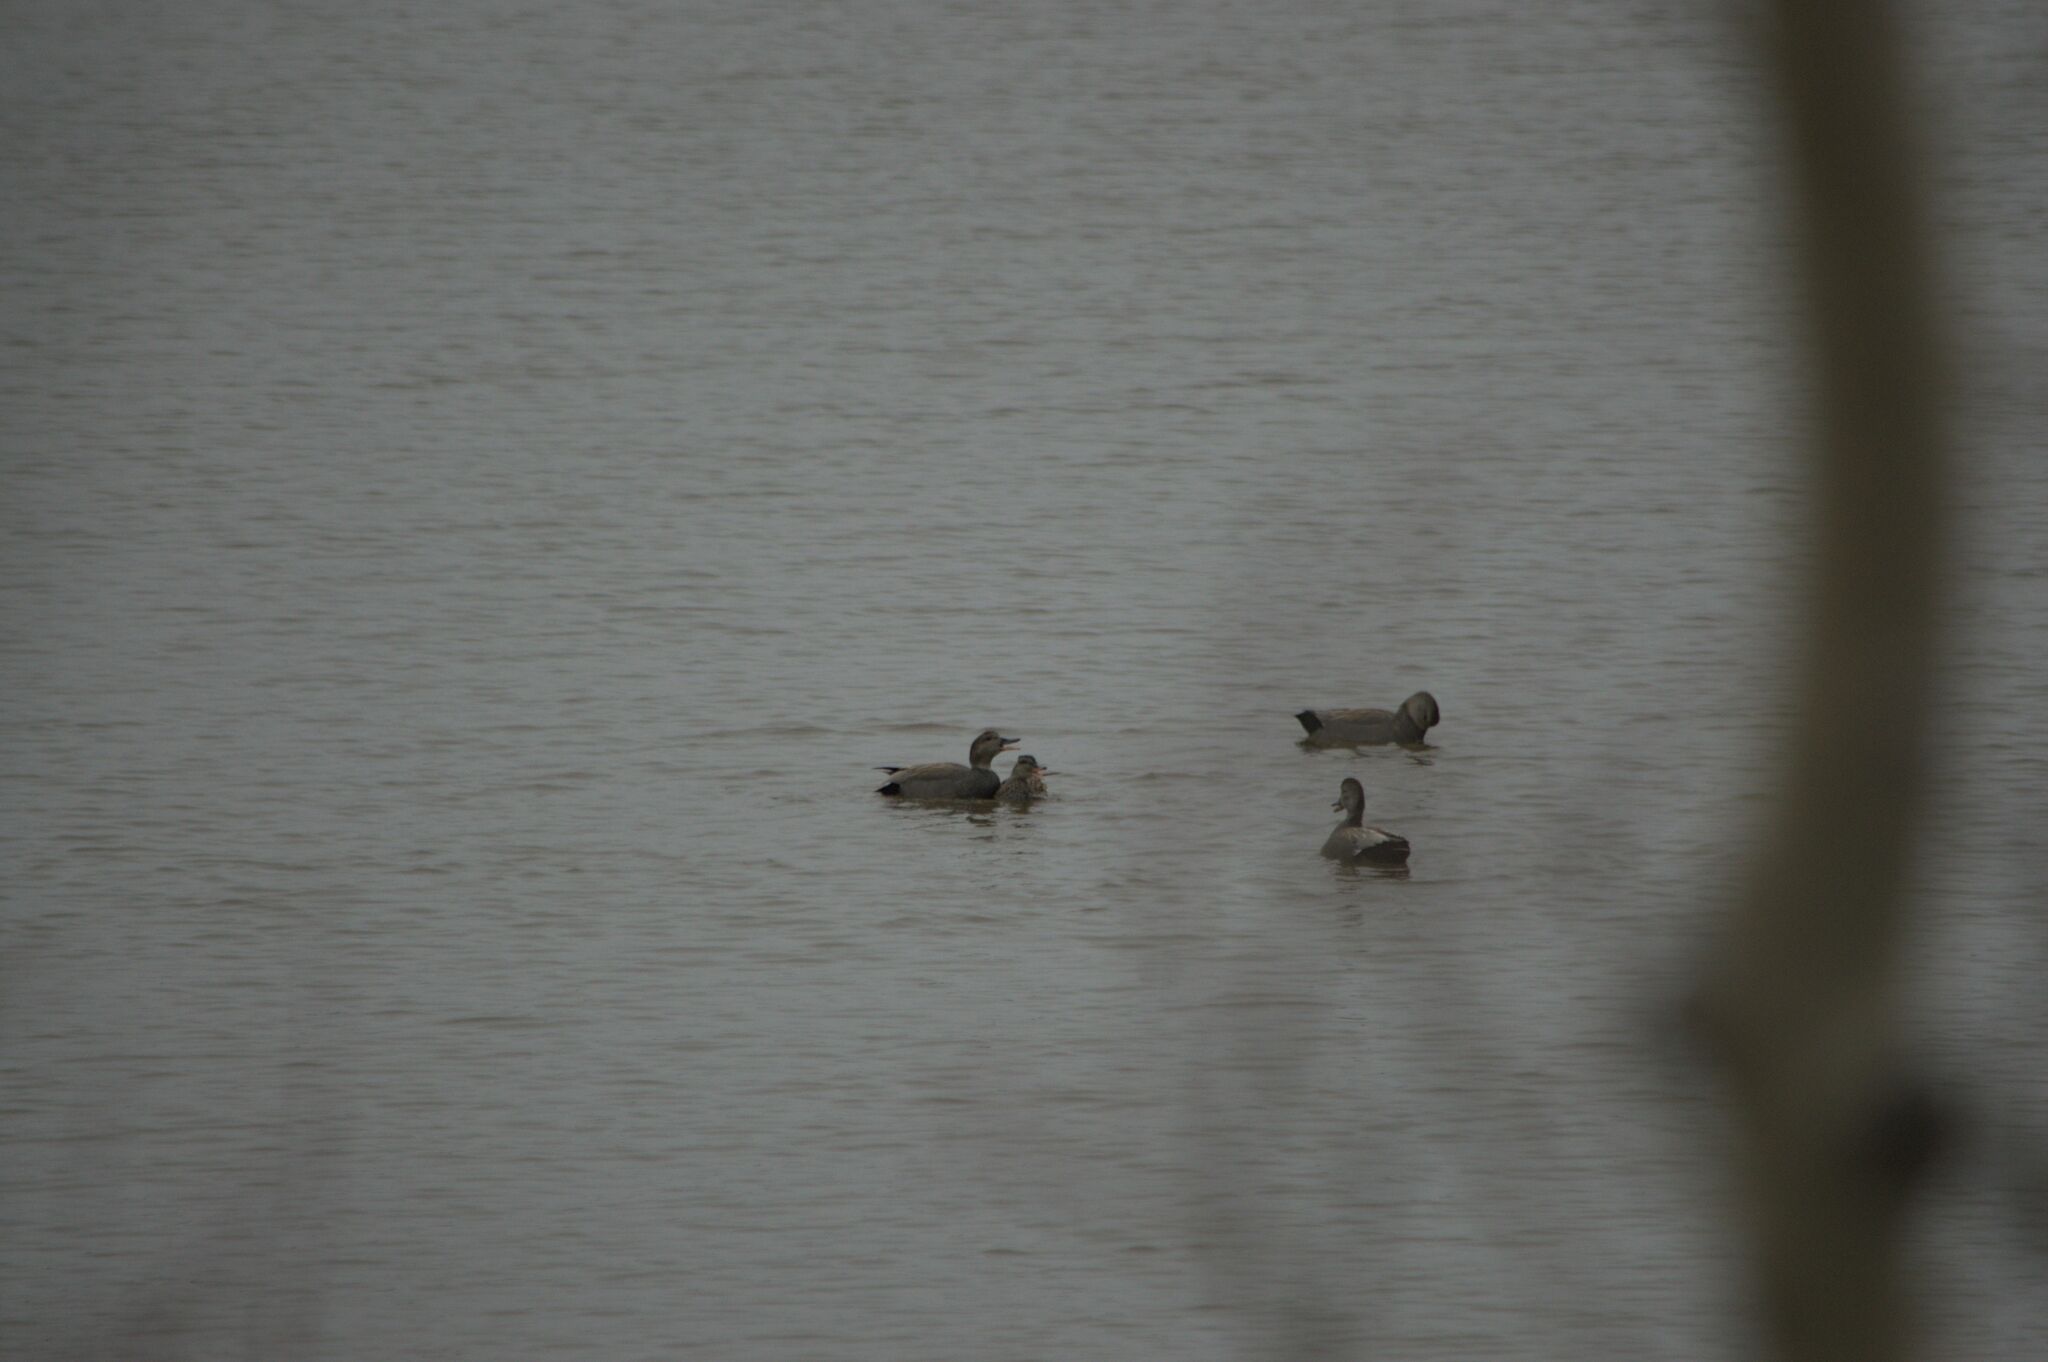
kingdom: Animalia
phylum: Chordata
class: Aves
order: Anseriformes
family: Anatidae
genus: Mareca
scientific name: Mareca strepera
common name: Gadwall
